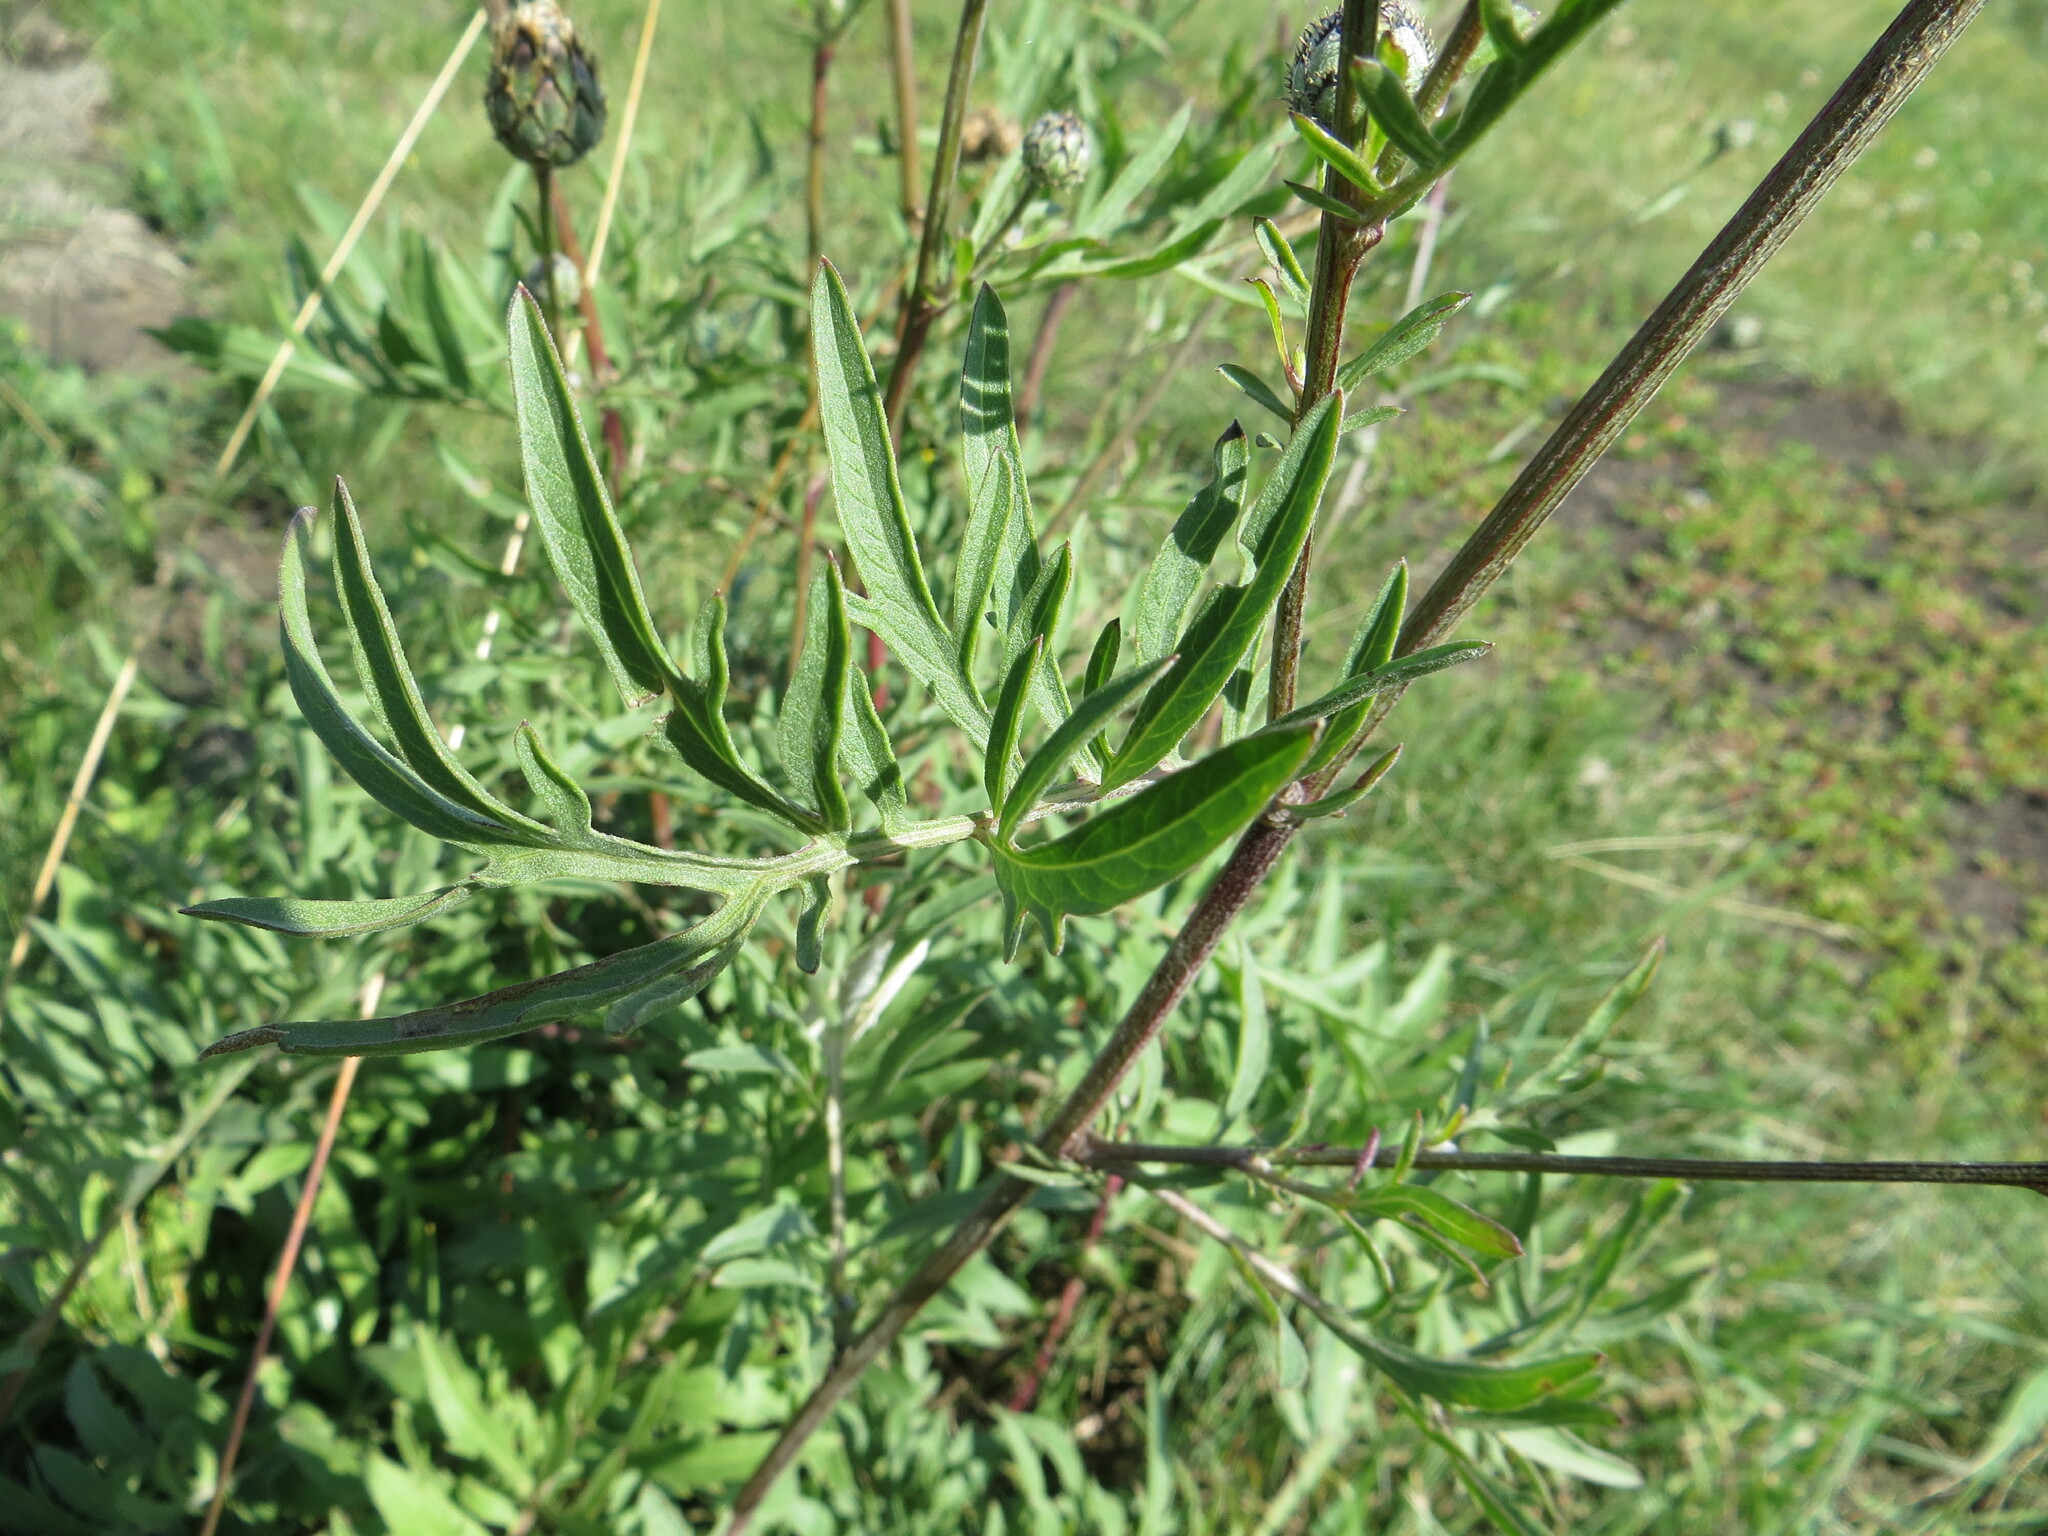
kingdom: Plantae
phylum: Tracheophyta
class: Magnoliopsida
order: Asterales
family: Asteraceae
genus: Centaurea
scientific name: Centaurea scabiosa
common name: Greater knapweed
